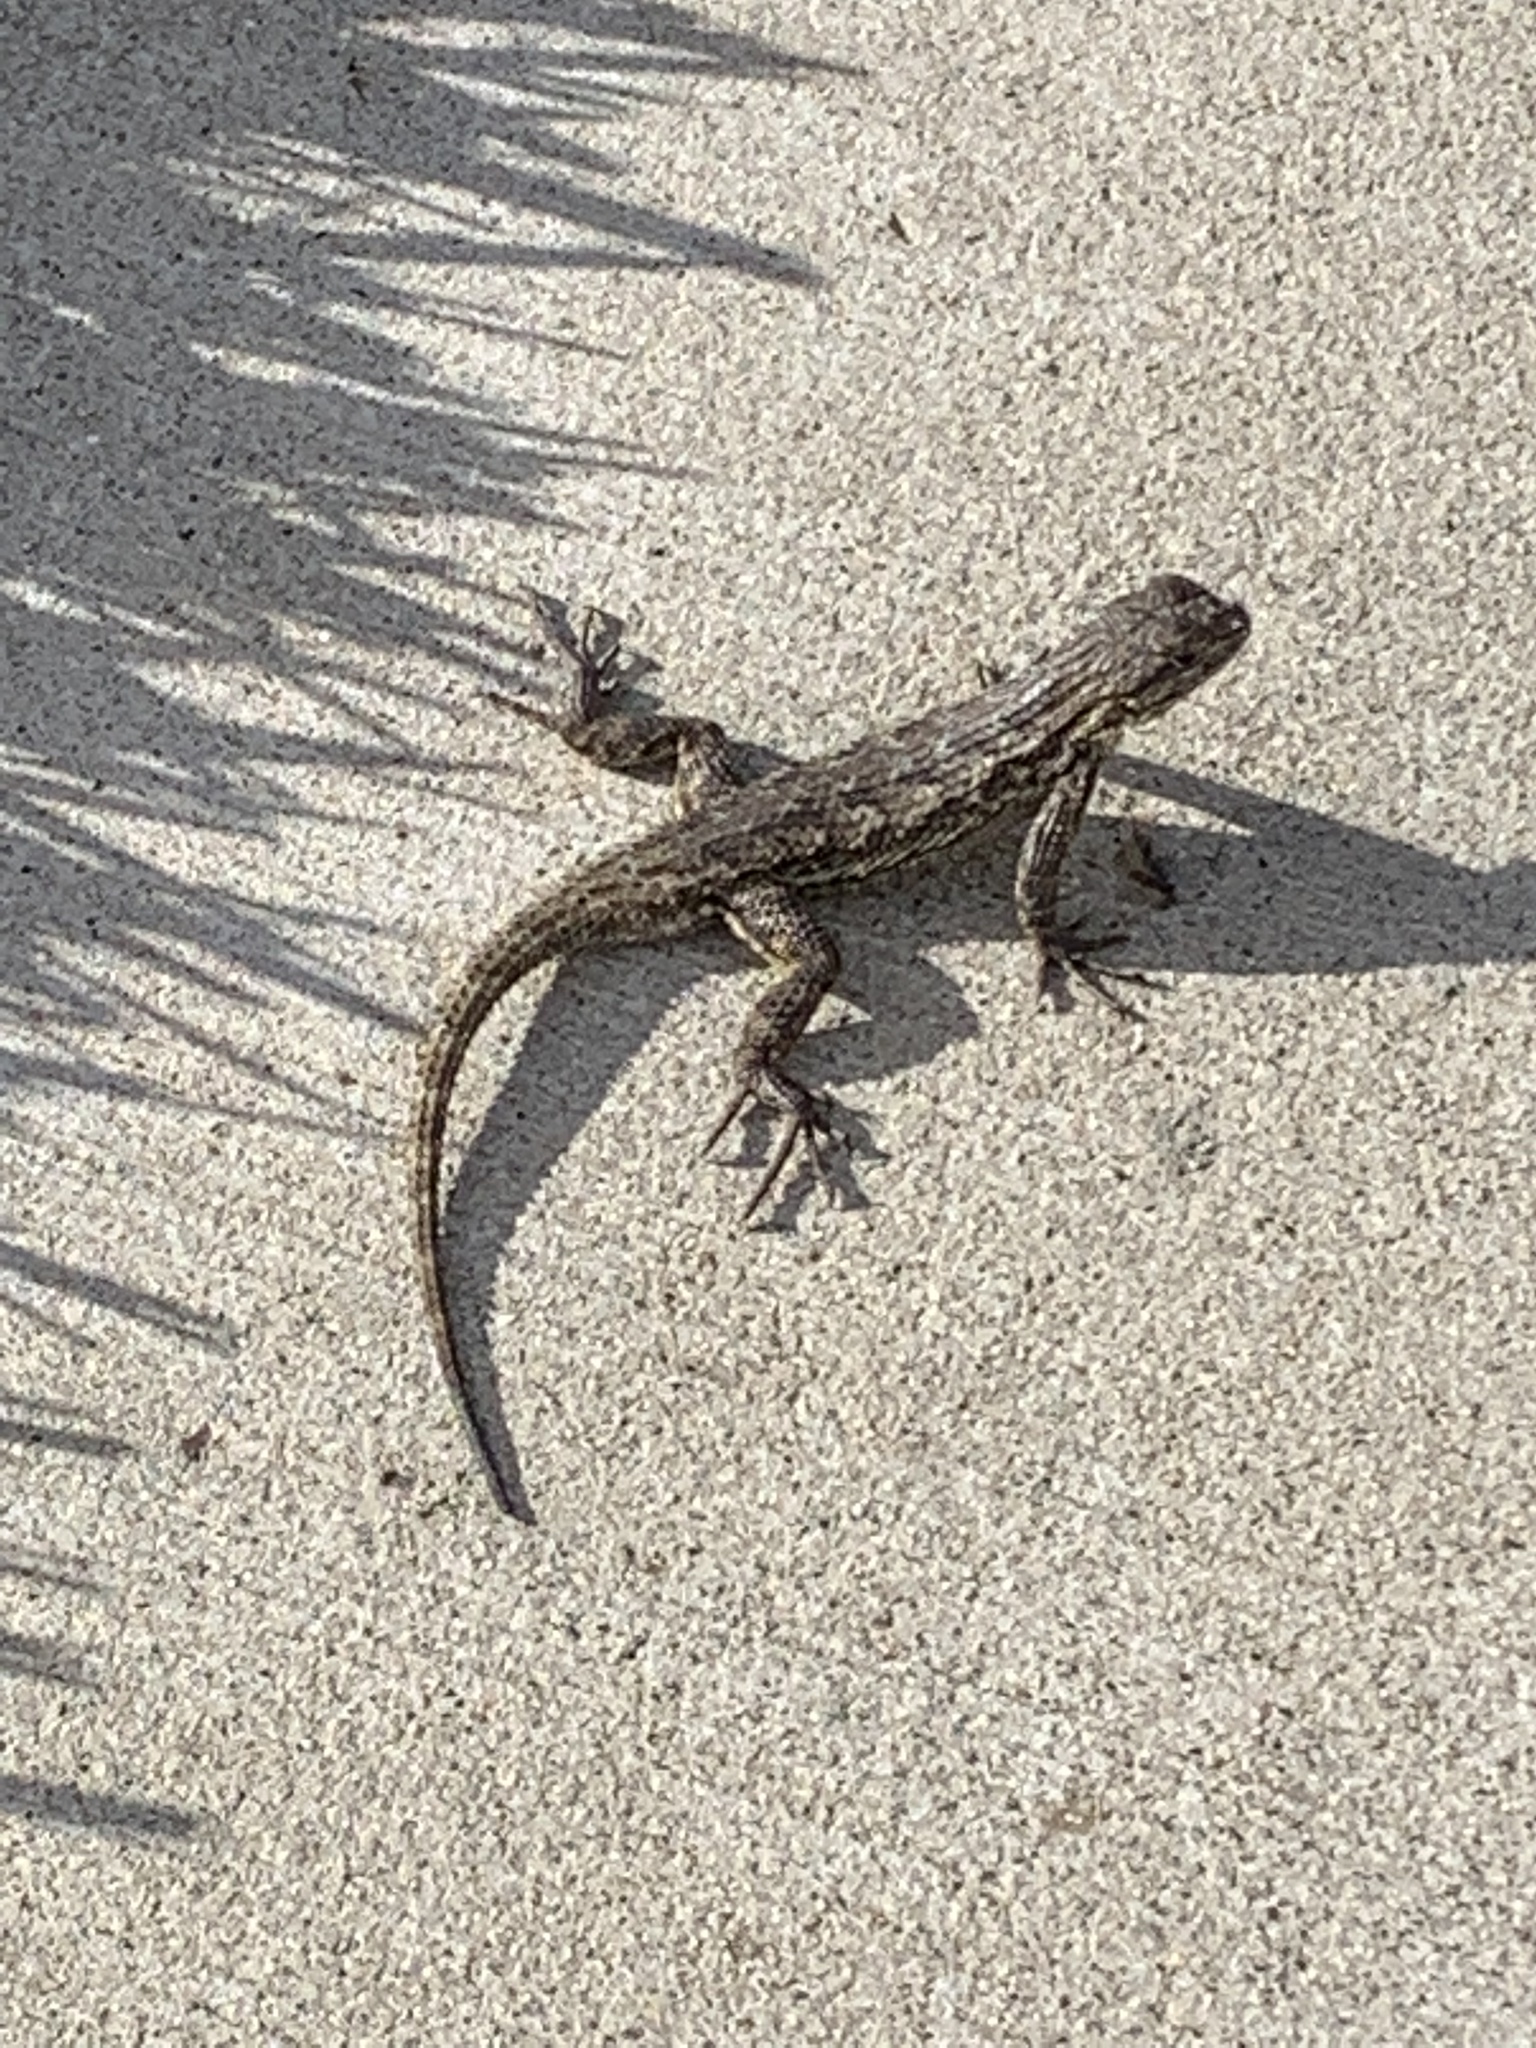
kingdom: Animalia
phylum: Chordata
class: Squamata
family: Phrynosomatidae
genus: Sceloporus
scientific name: Sceloporus occidentalis
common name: Western fence lizard
